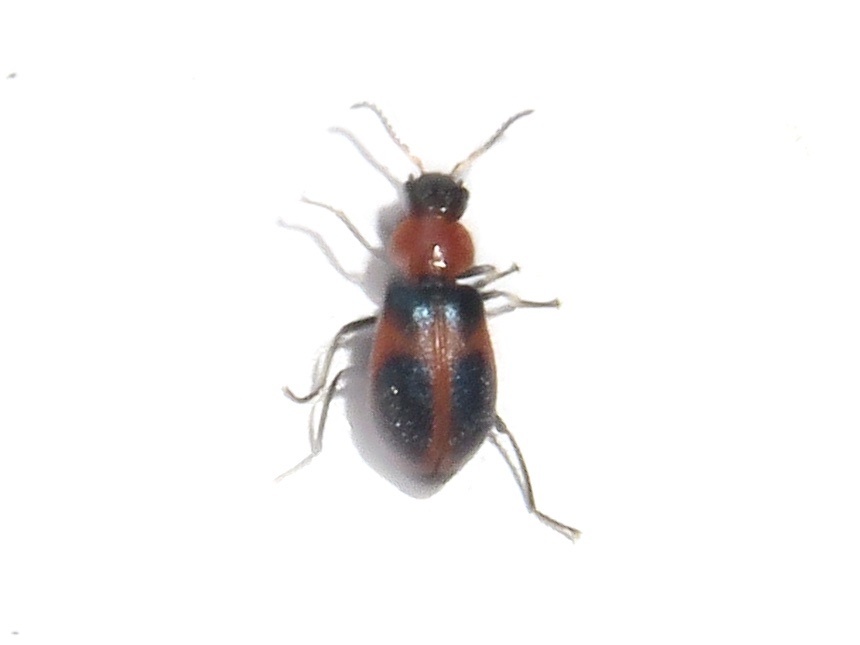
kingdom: Animalia
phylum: Arthropoda
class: Insecta
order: Coleoptera
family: Melyridae
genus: Collops
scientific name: Collops quadrimaculatus
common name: Four-spotted collops
